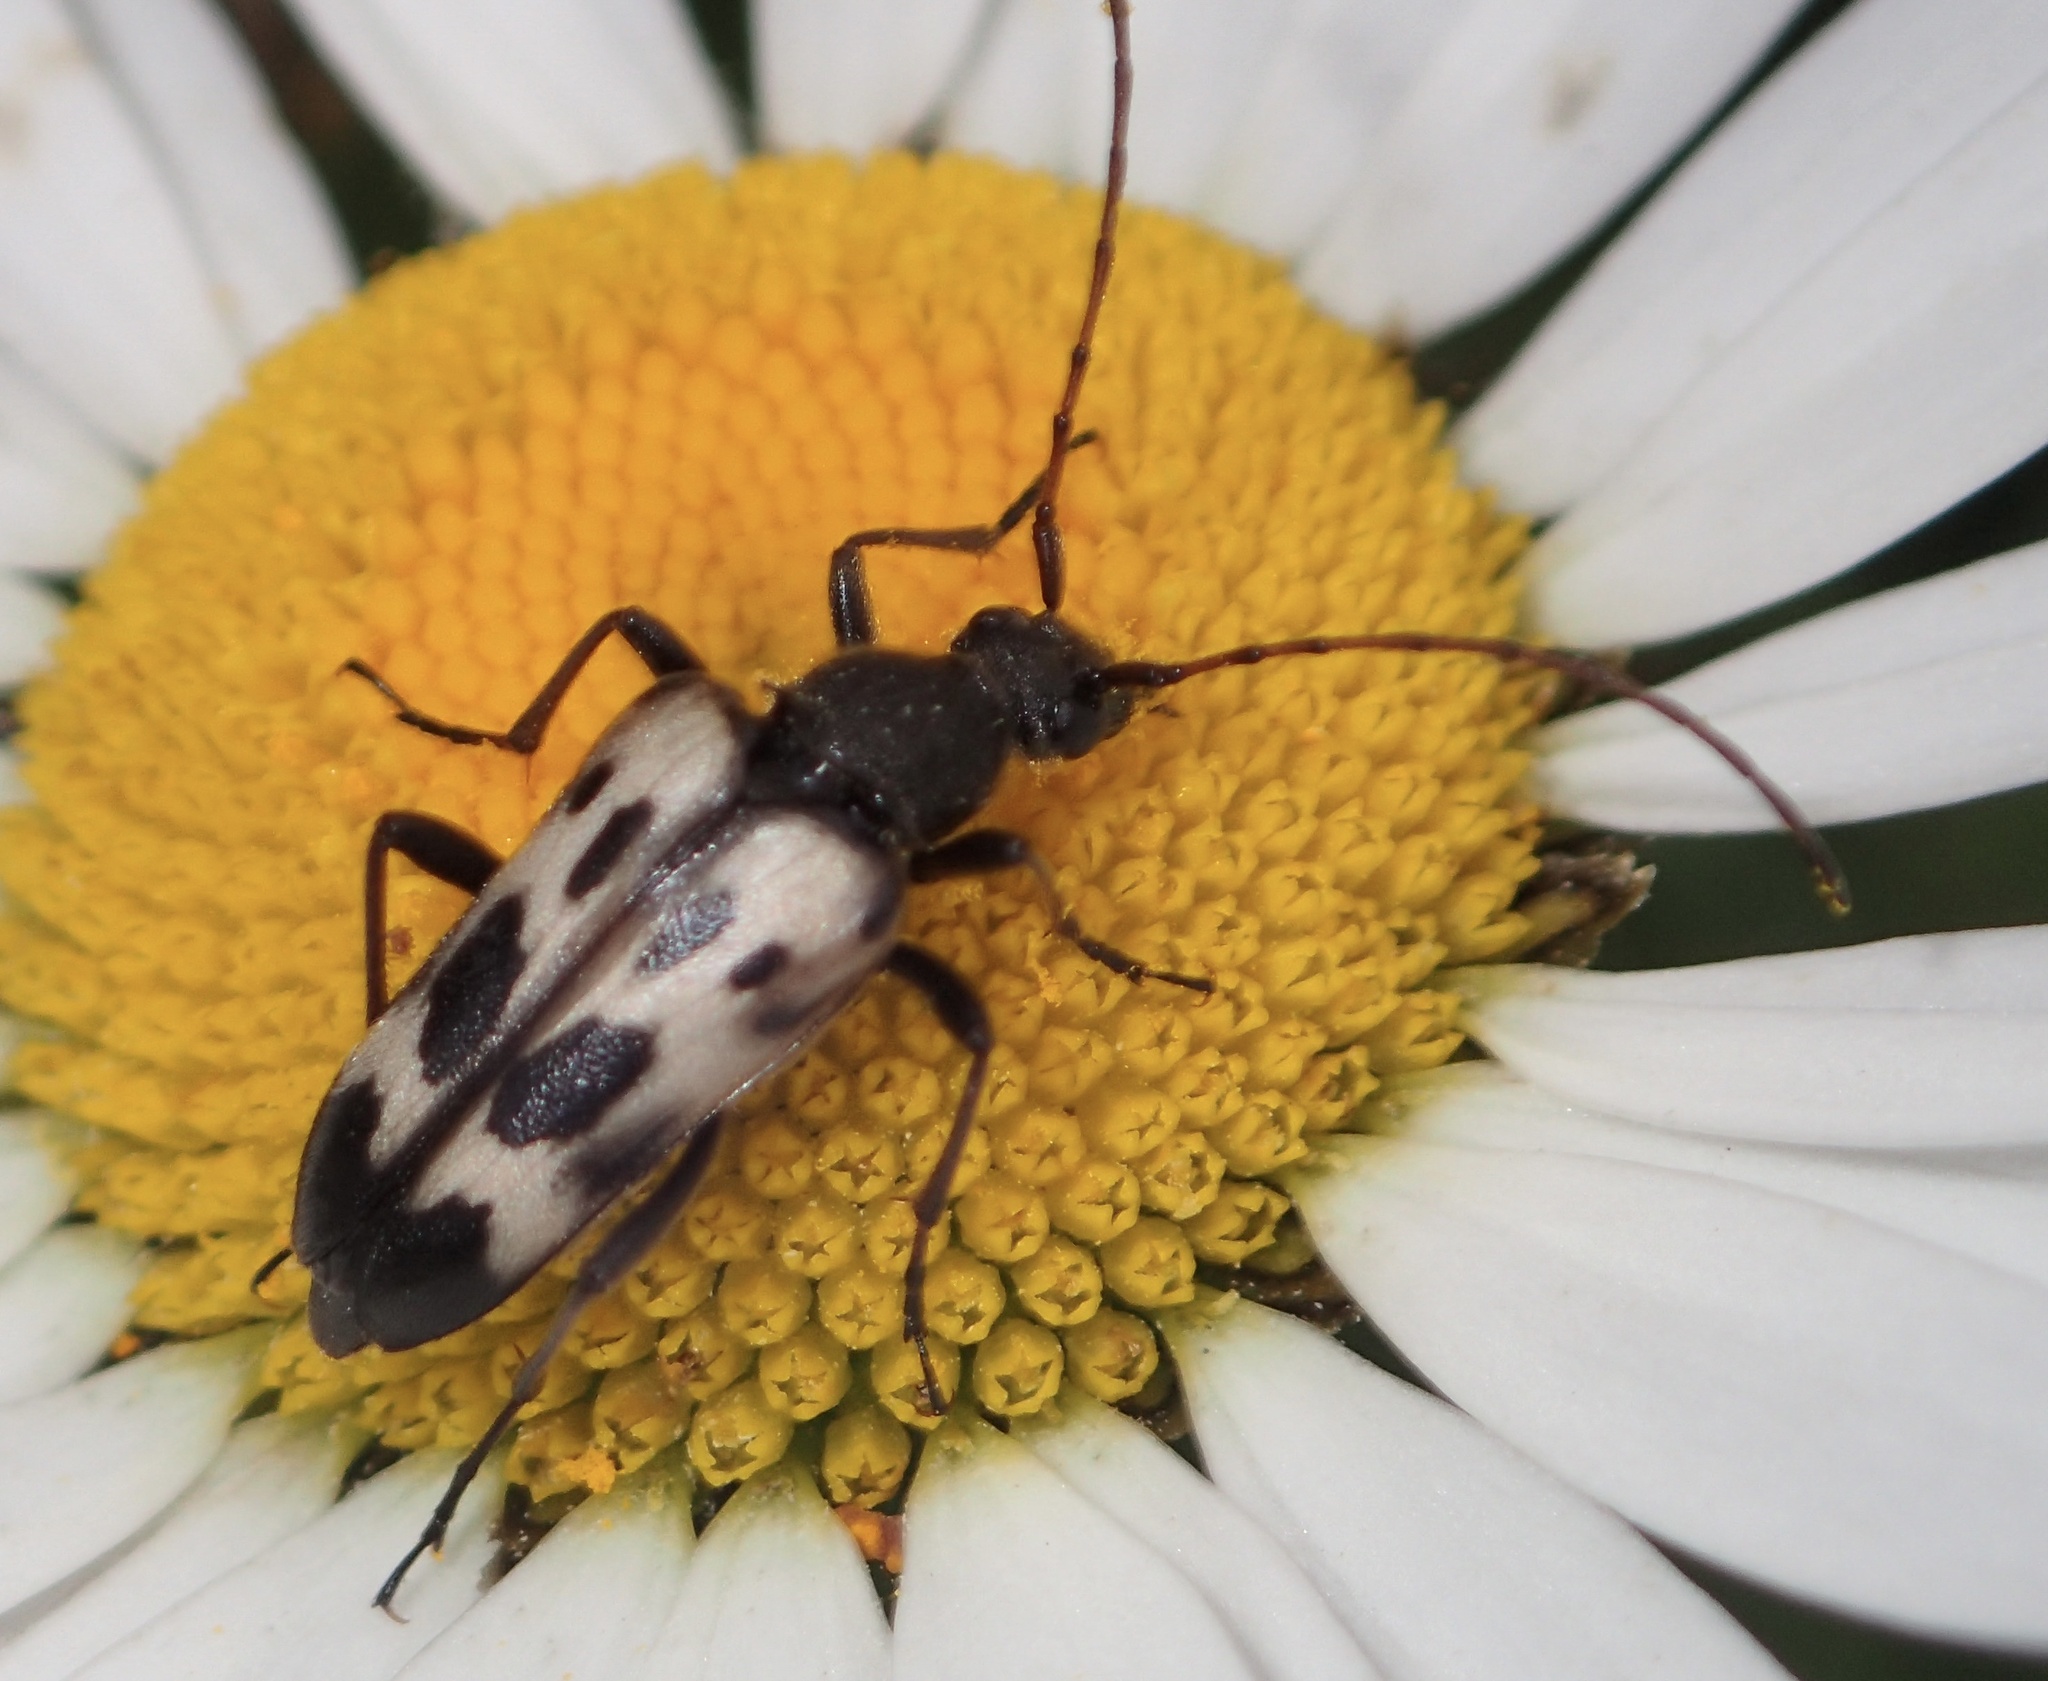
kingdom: Animalia
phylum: Arthropoda
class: Insecta
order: Coleoptera
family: Cerambycidae
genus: Judolia
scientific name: Judolia montivagans
